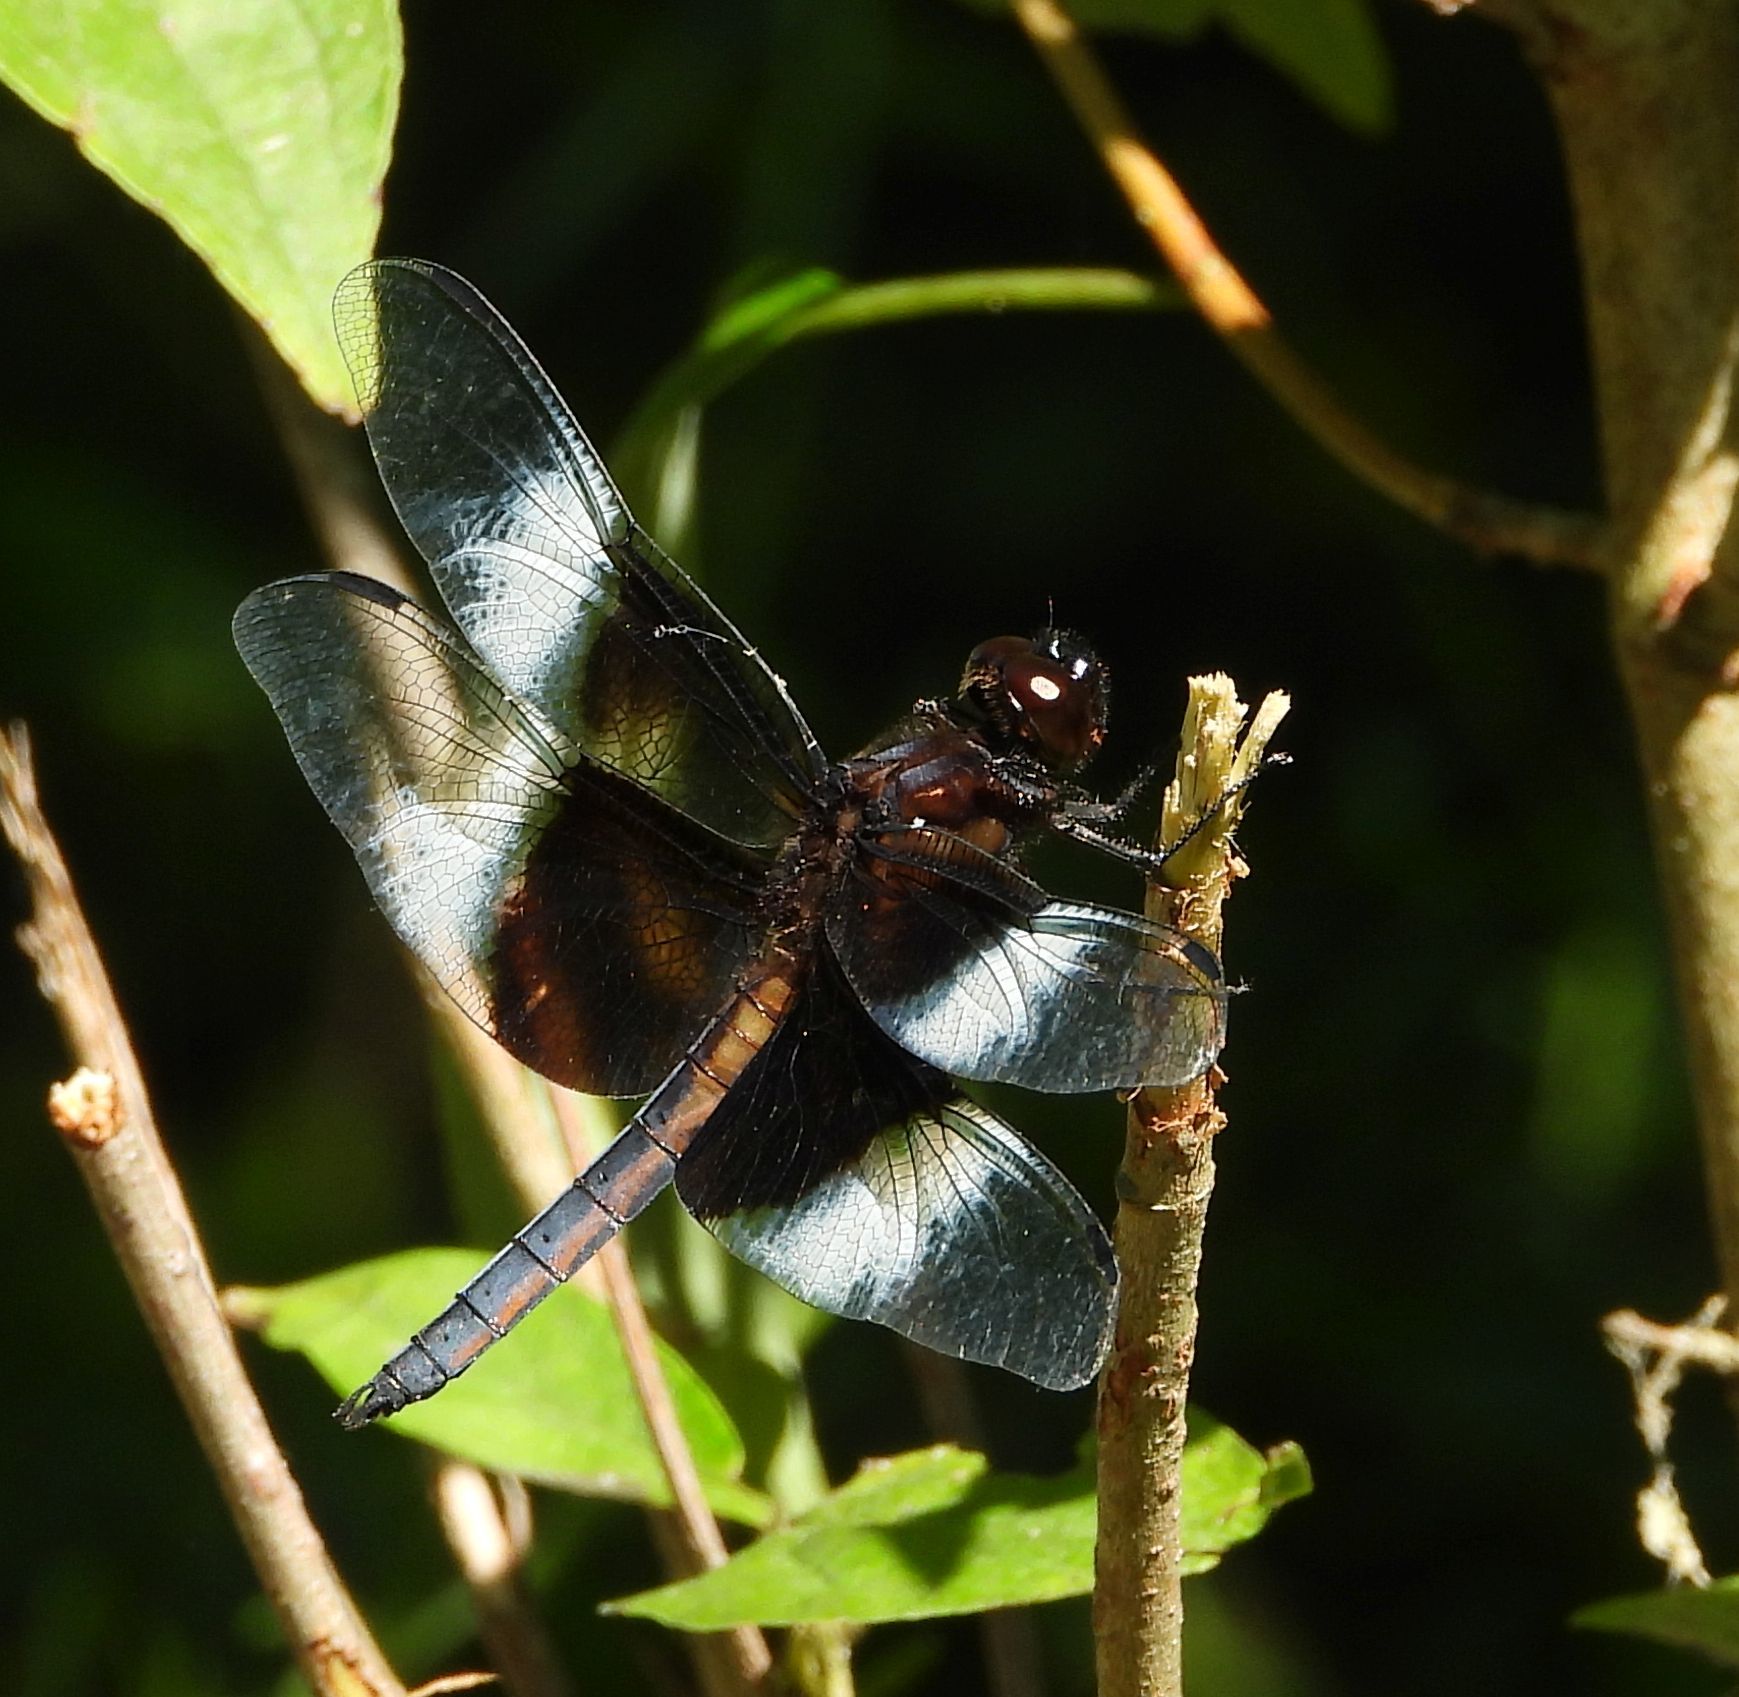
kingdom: Animalia
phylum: Arthropoda
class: Insecta
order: Odonata
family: Libellulidae
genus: Libellula
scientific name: Libellula luctuosa
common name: Widow skimmer
